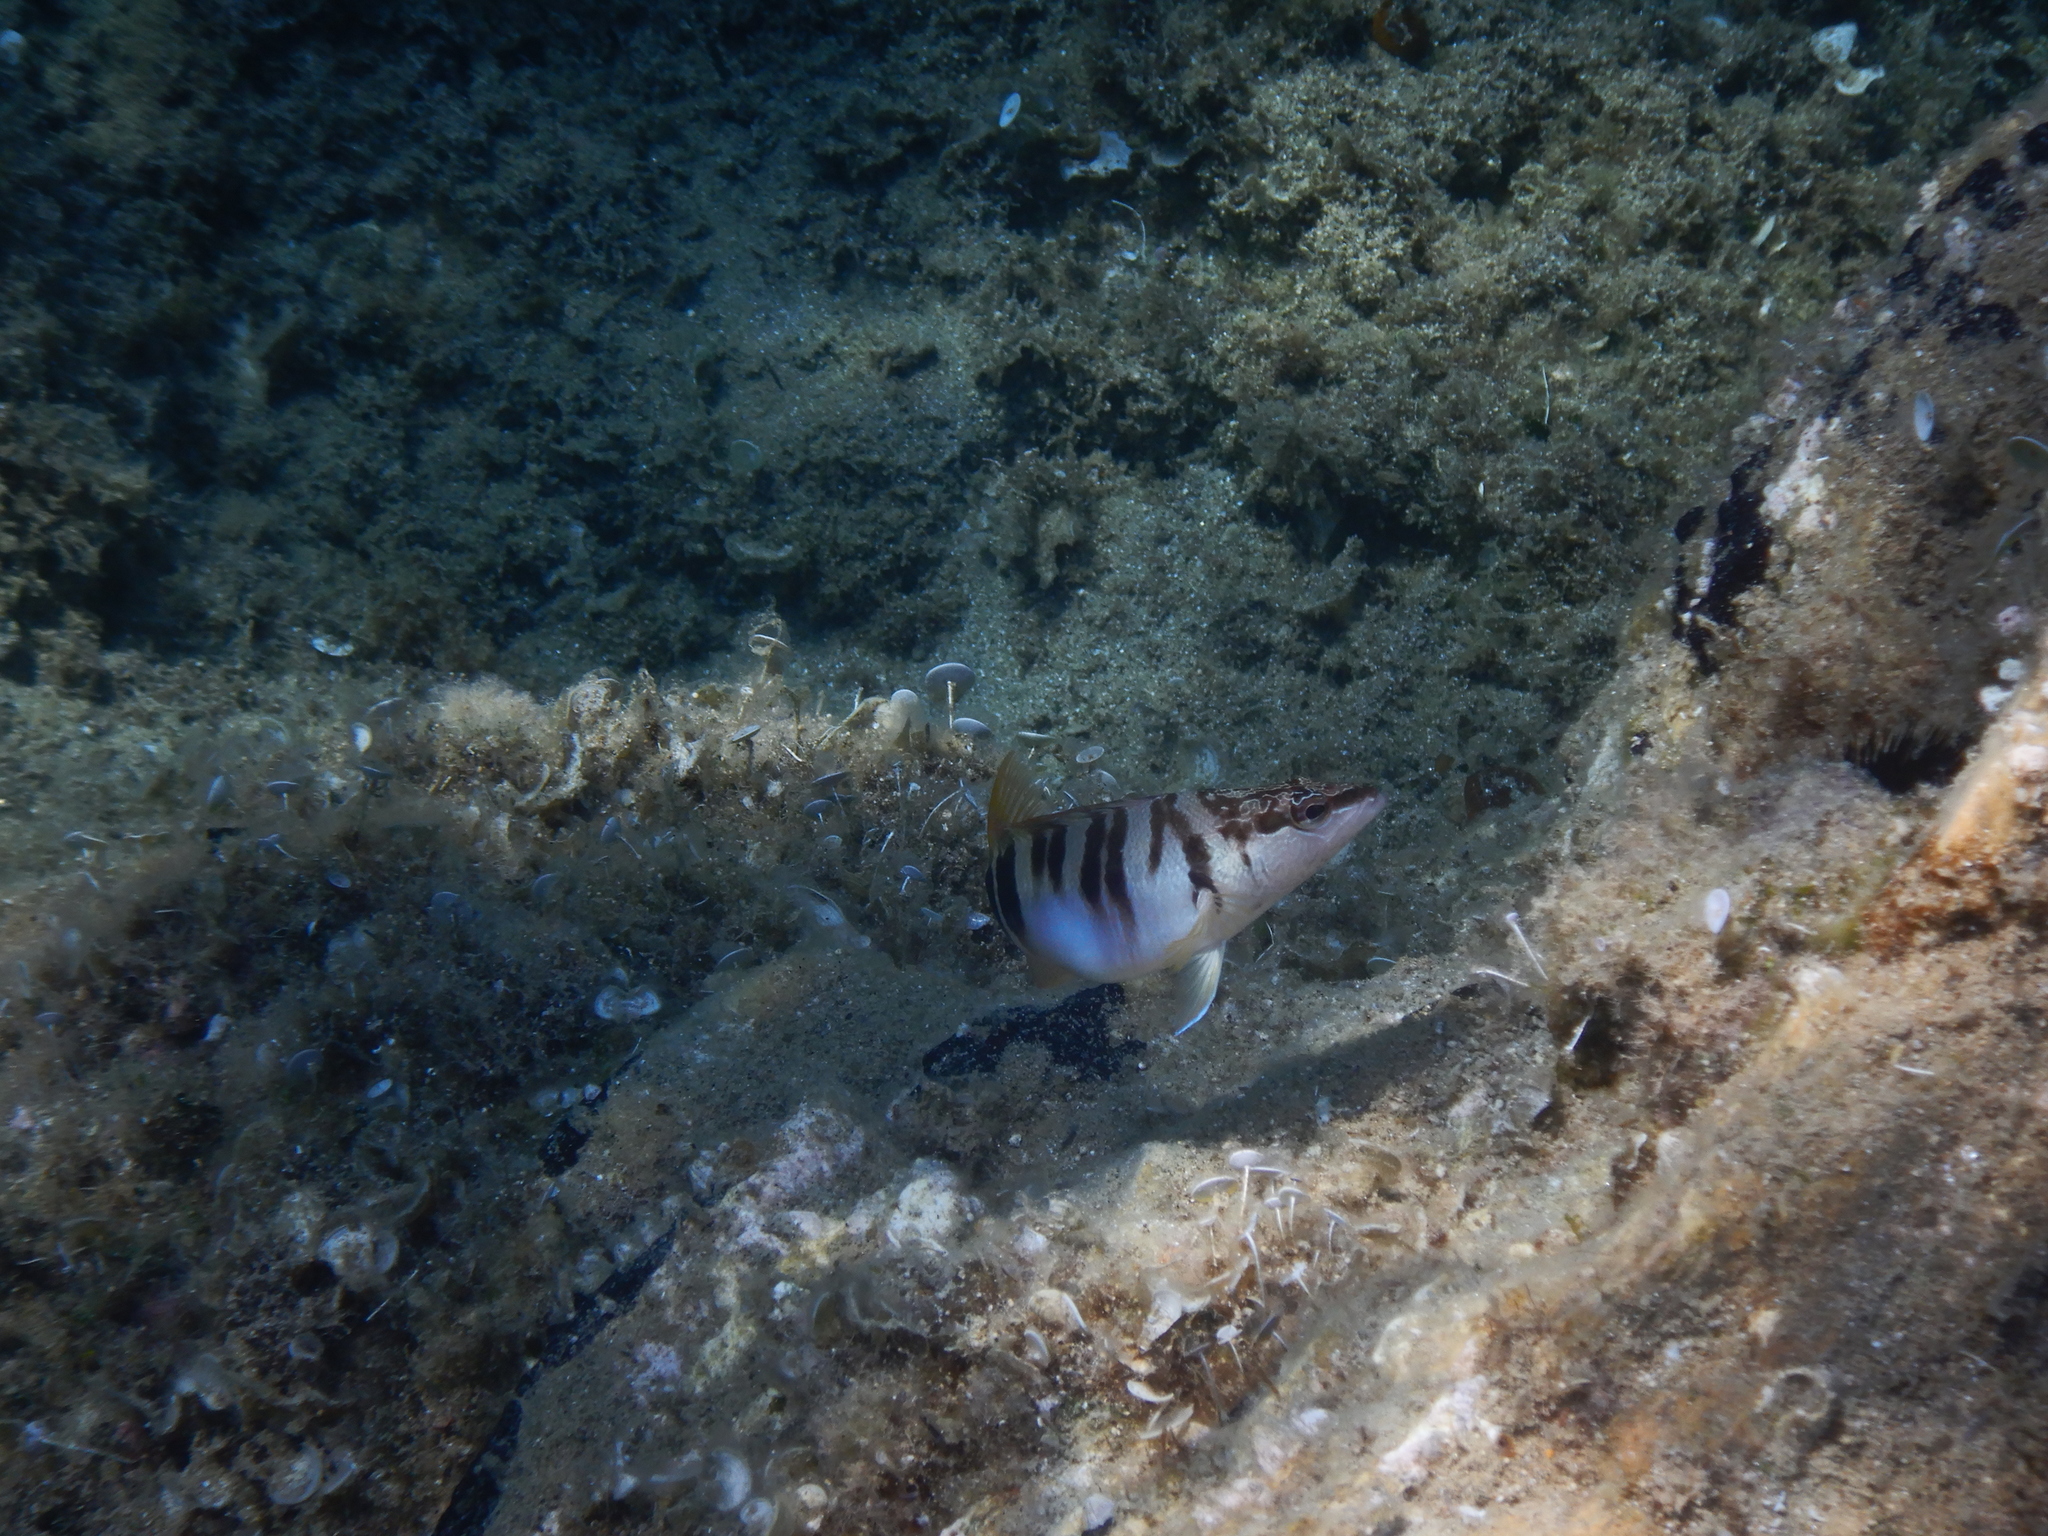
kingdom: Animalia
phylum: Chordata
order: Perciformes
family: Serranidae
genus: Serranus
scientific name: Serranus scriba
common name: Painted comber
